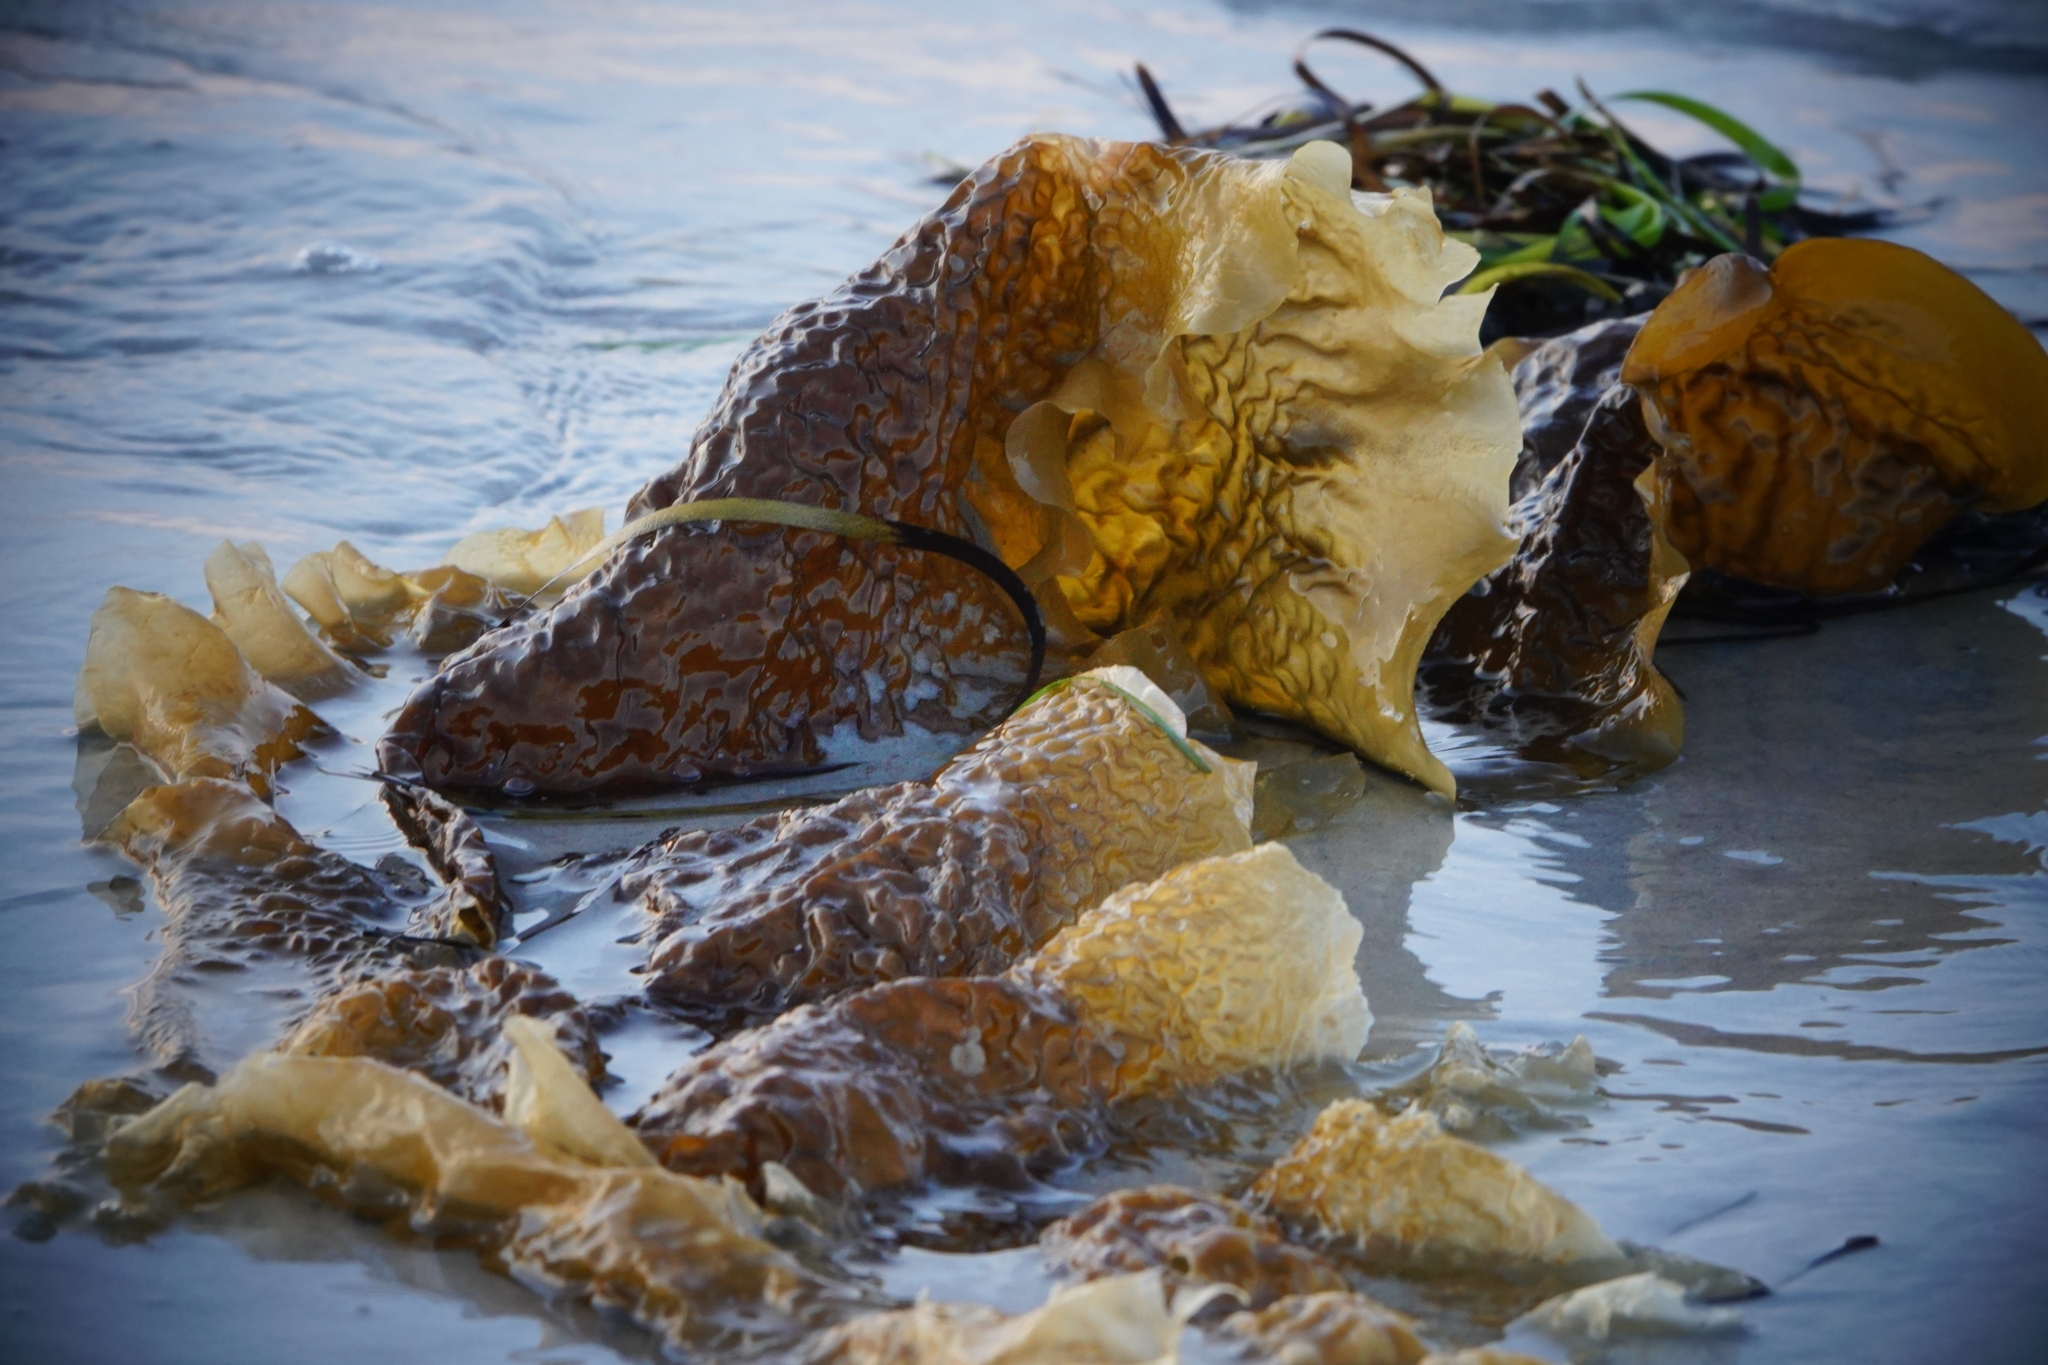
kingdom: Chromista
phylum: Ochrophyta
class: Phaeophyceae
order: Laminariales
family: Laminariaceae
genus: Saccharina
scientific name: Saccharina latissima
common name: Poor man's weather glass
